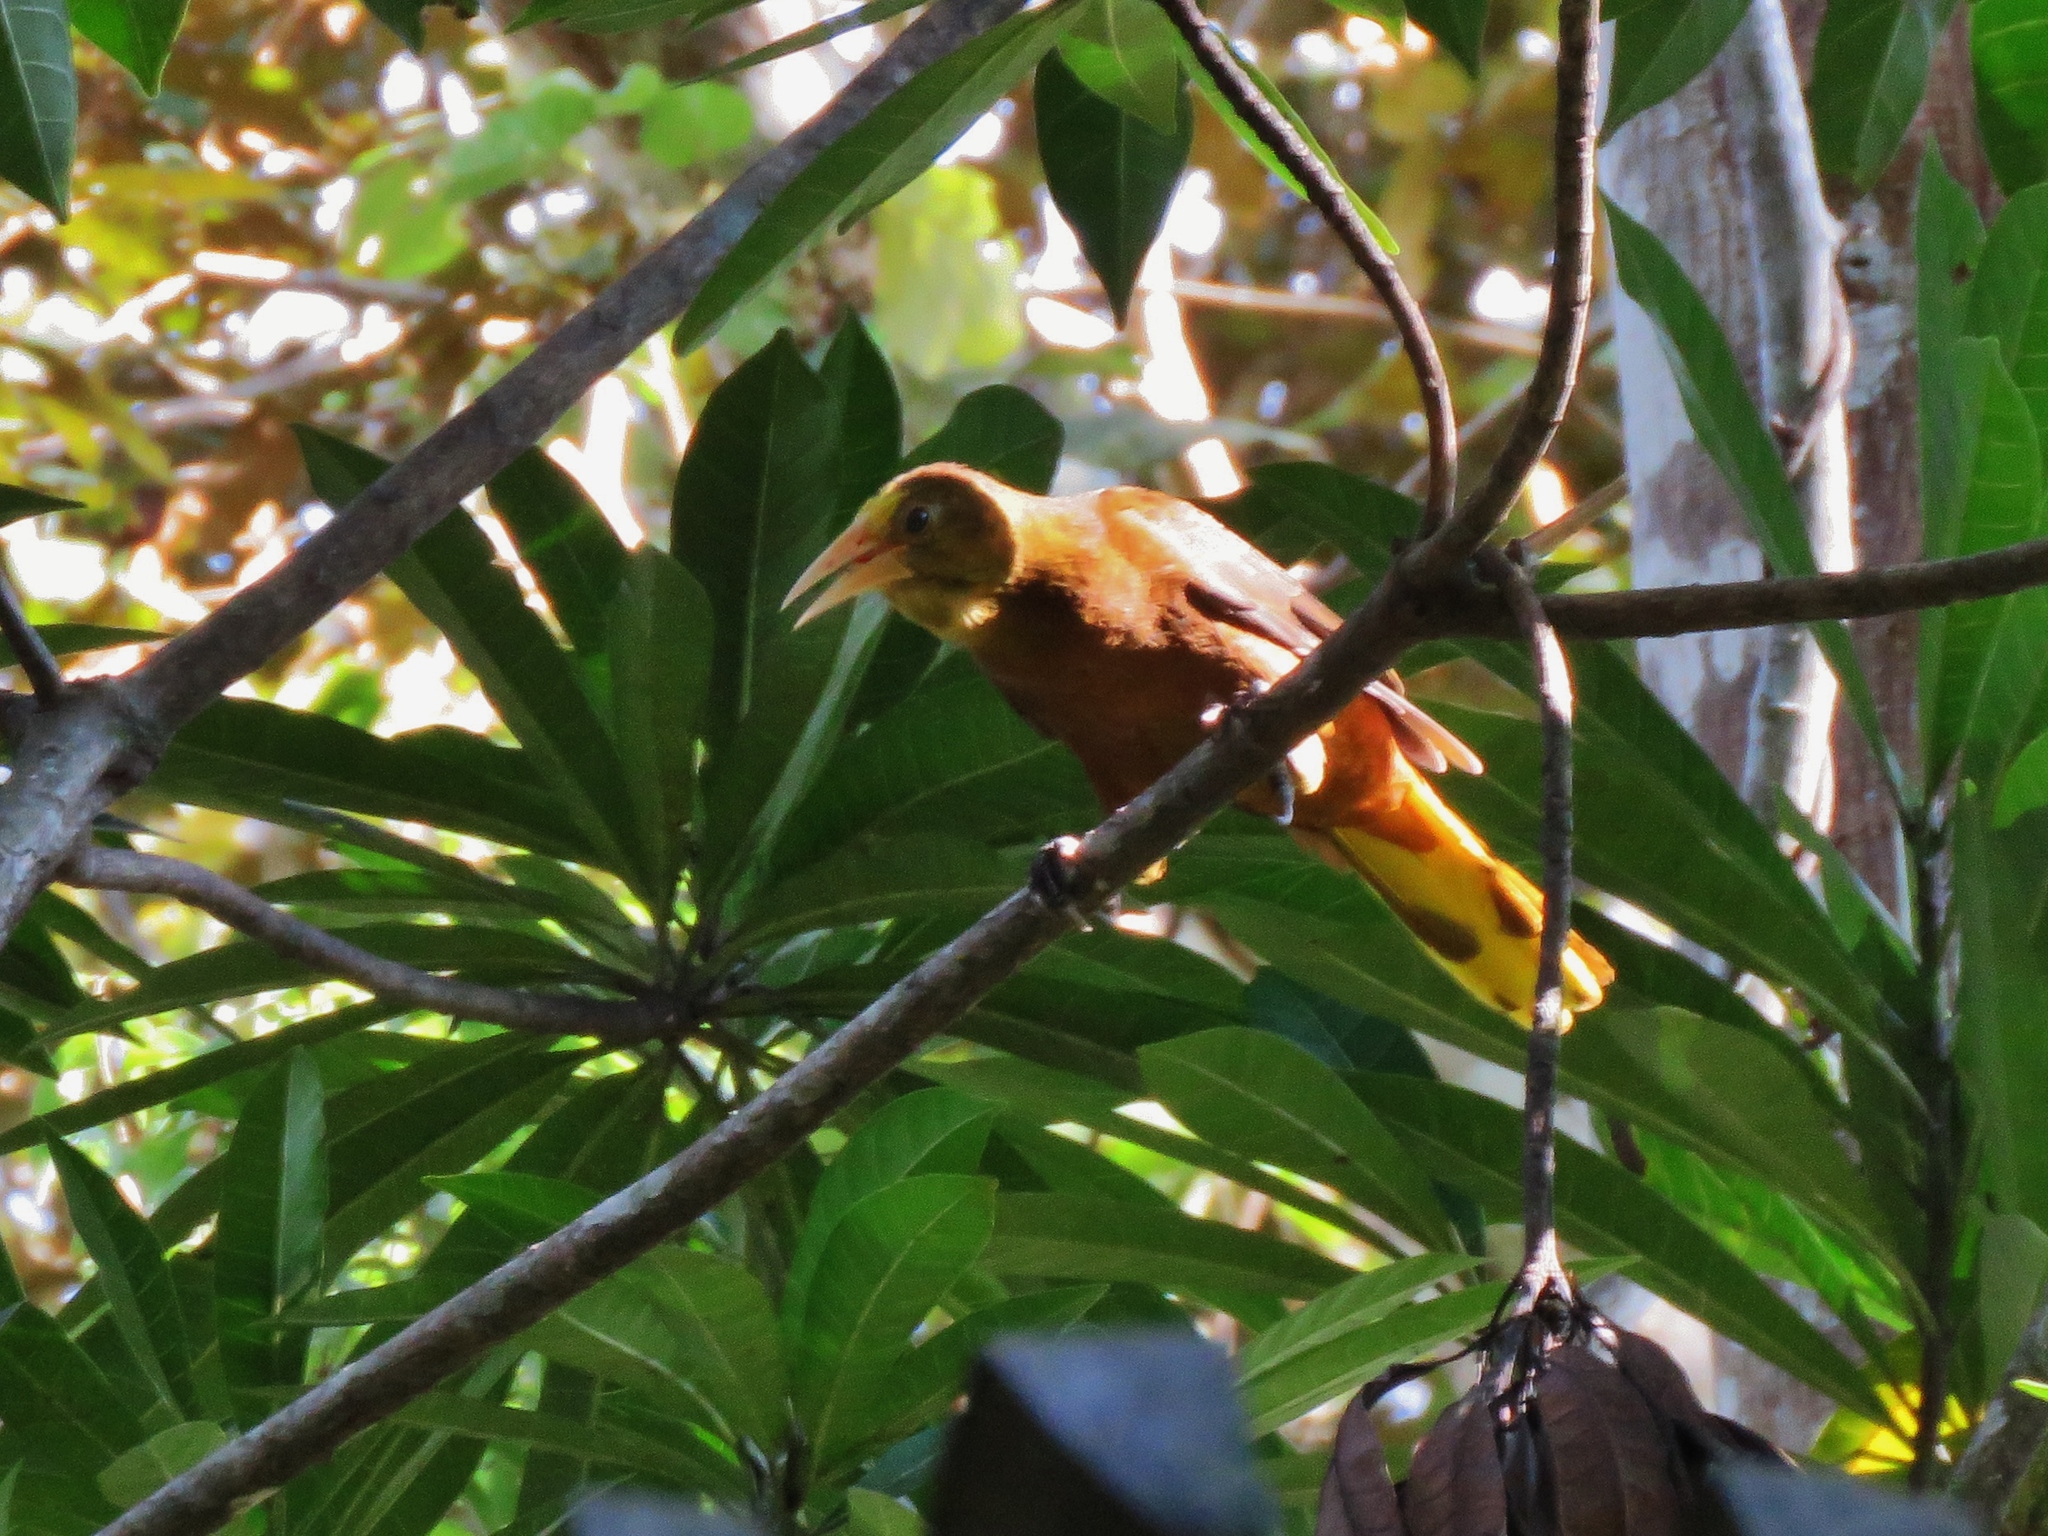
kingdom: Animalia
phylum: Chordata
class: Aves
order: Passeriformes
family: Icteridae
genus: Psarocolius
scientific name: Psarocolius angustifrons
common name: Russet-backed oropendola
